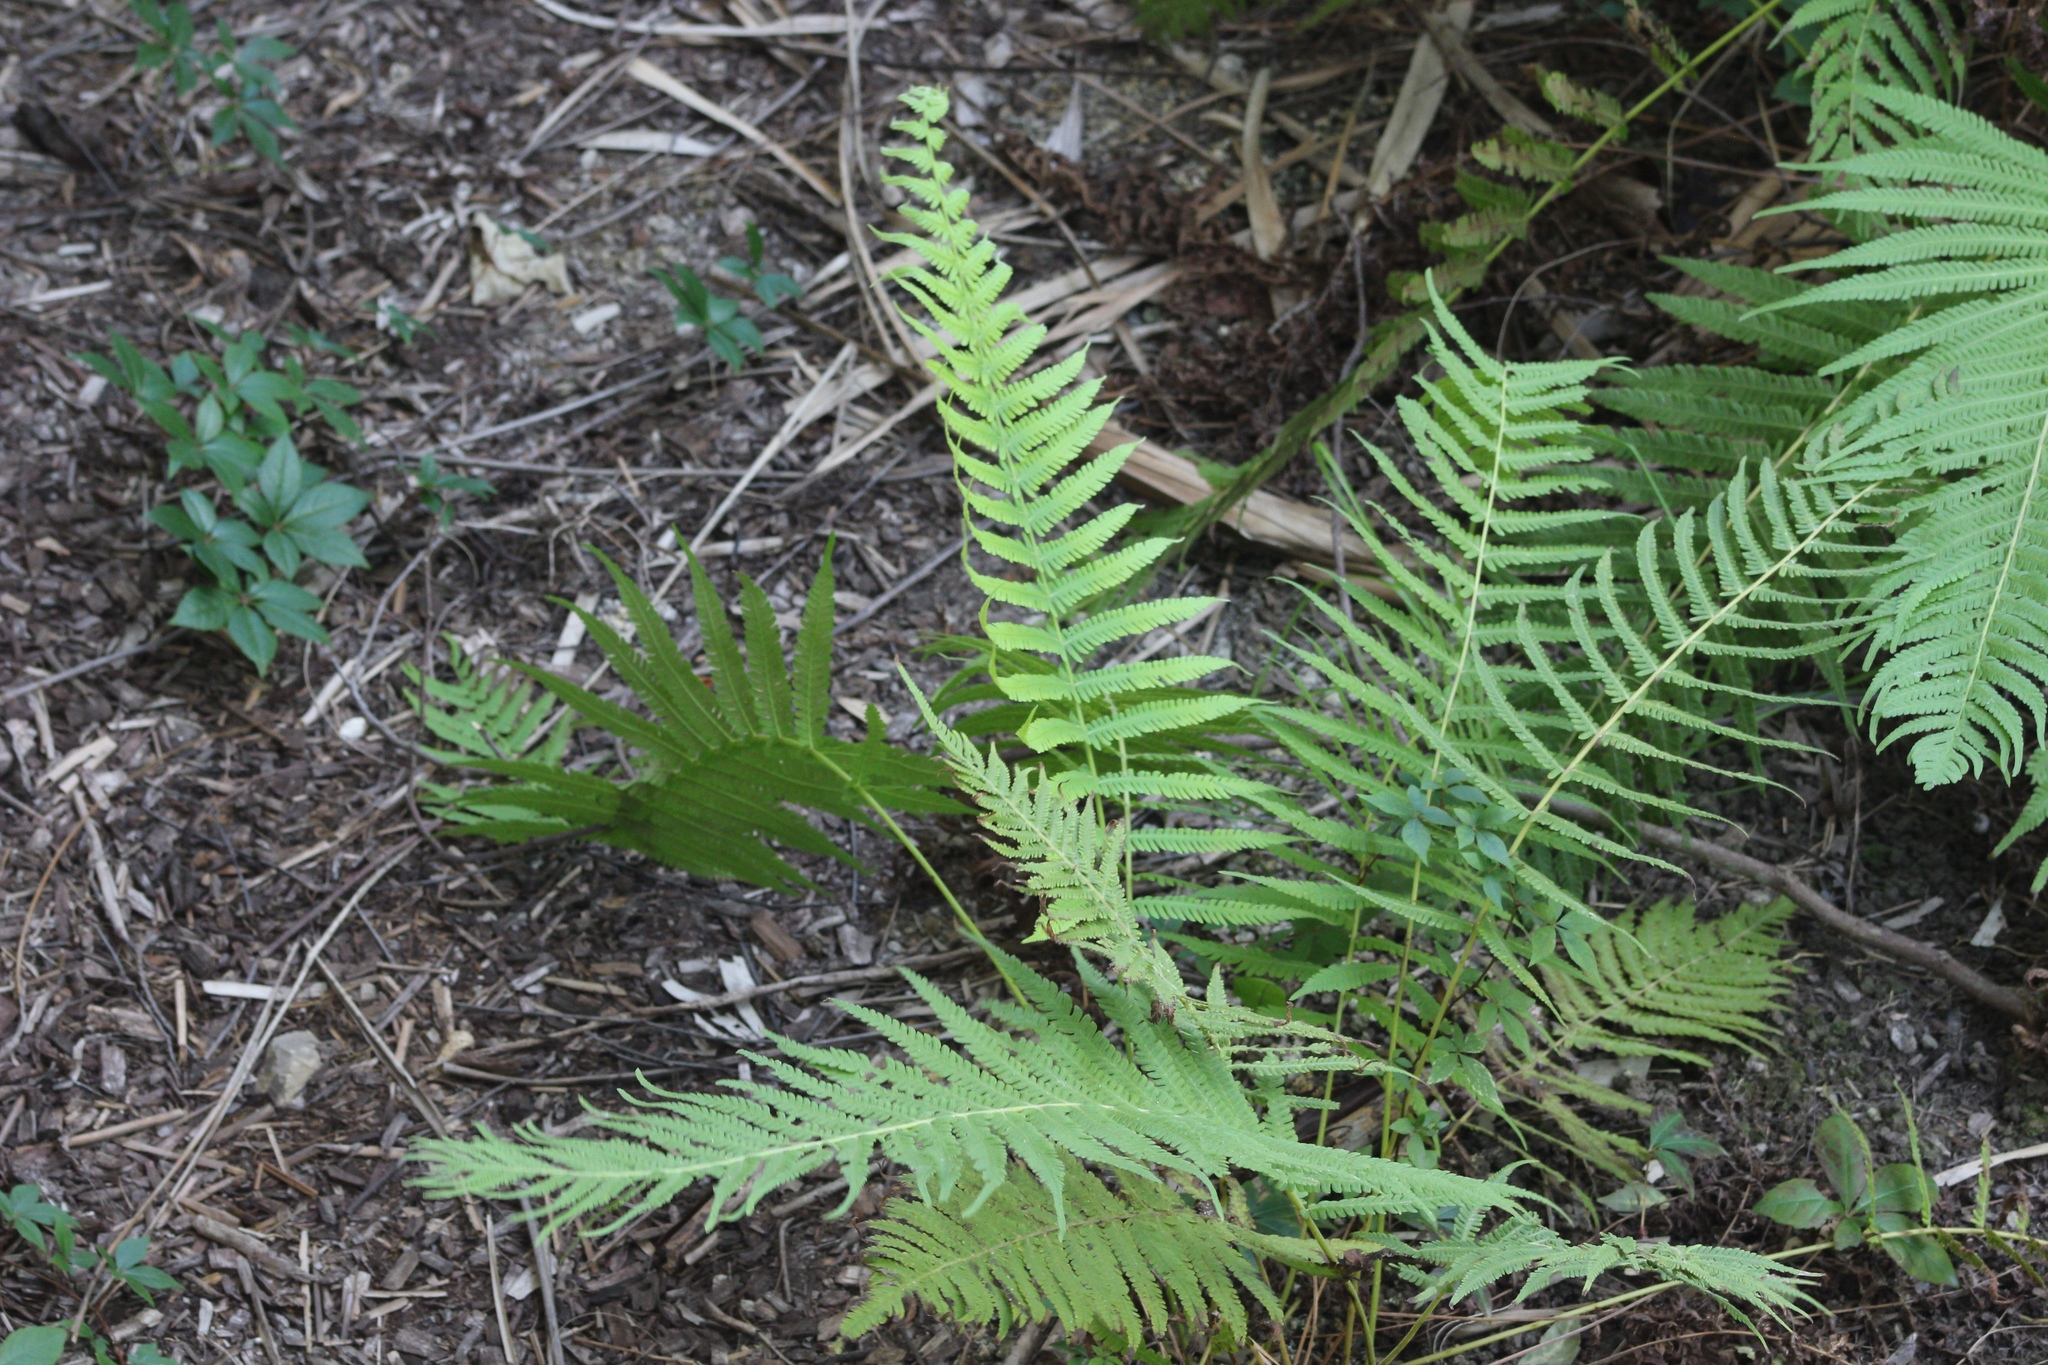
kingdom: Plantae
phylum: Tracheophyta
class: Polypodiopsida
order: Polypodiales
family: Thelypteridaceae
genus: Pelazoneuron
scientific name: Pelazoneuron kunthii
